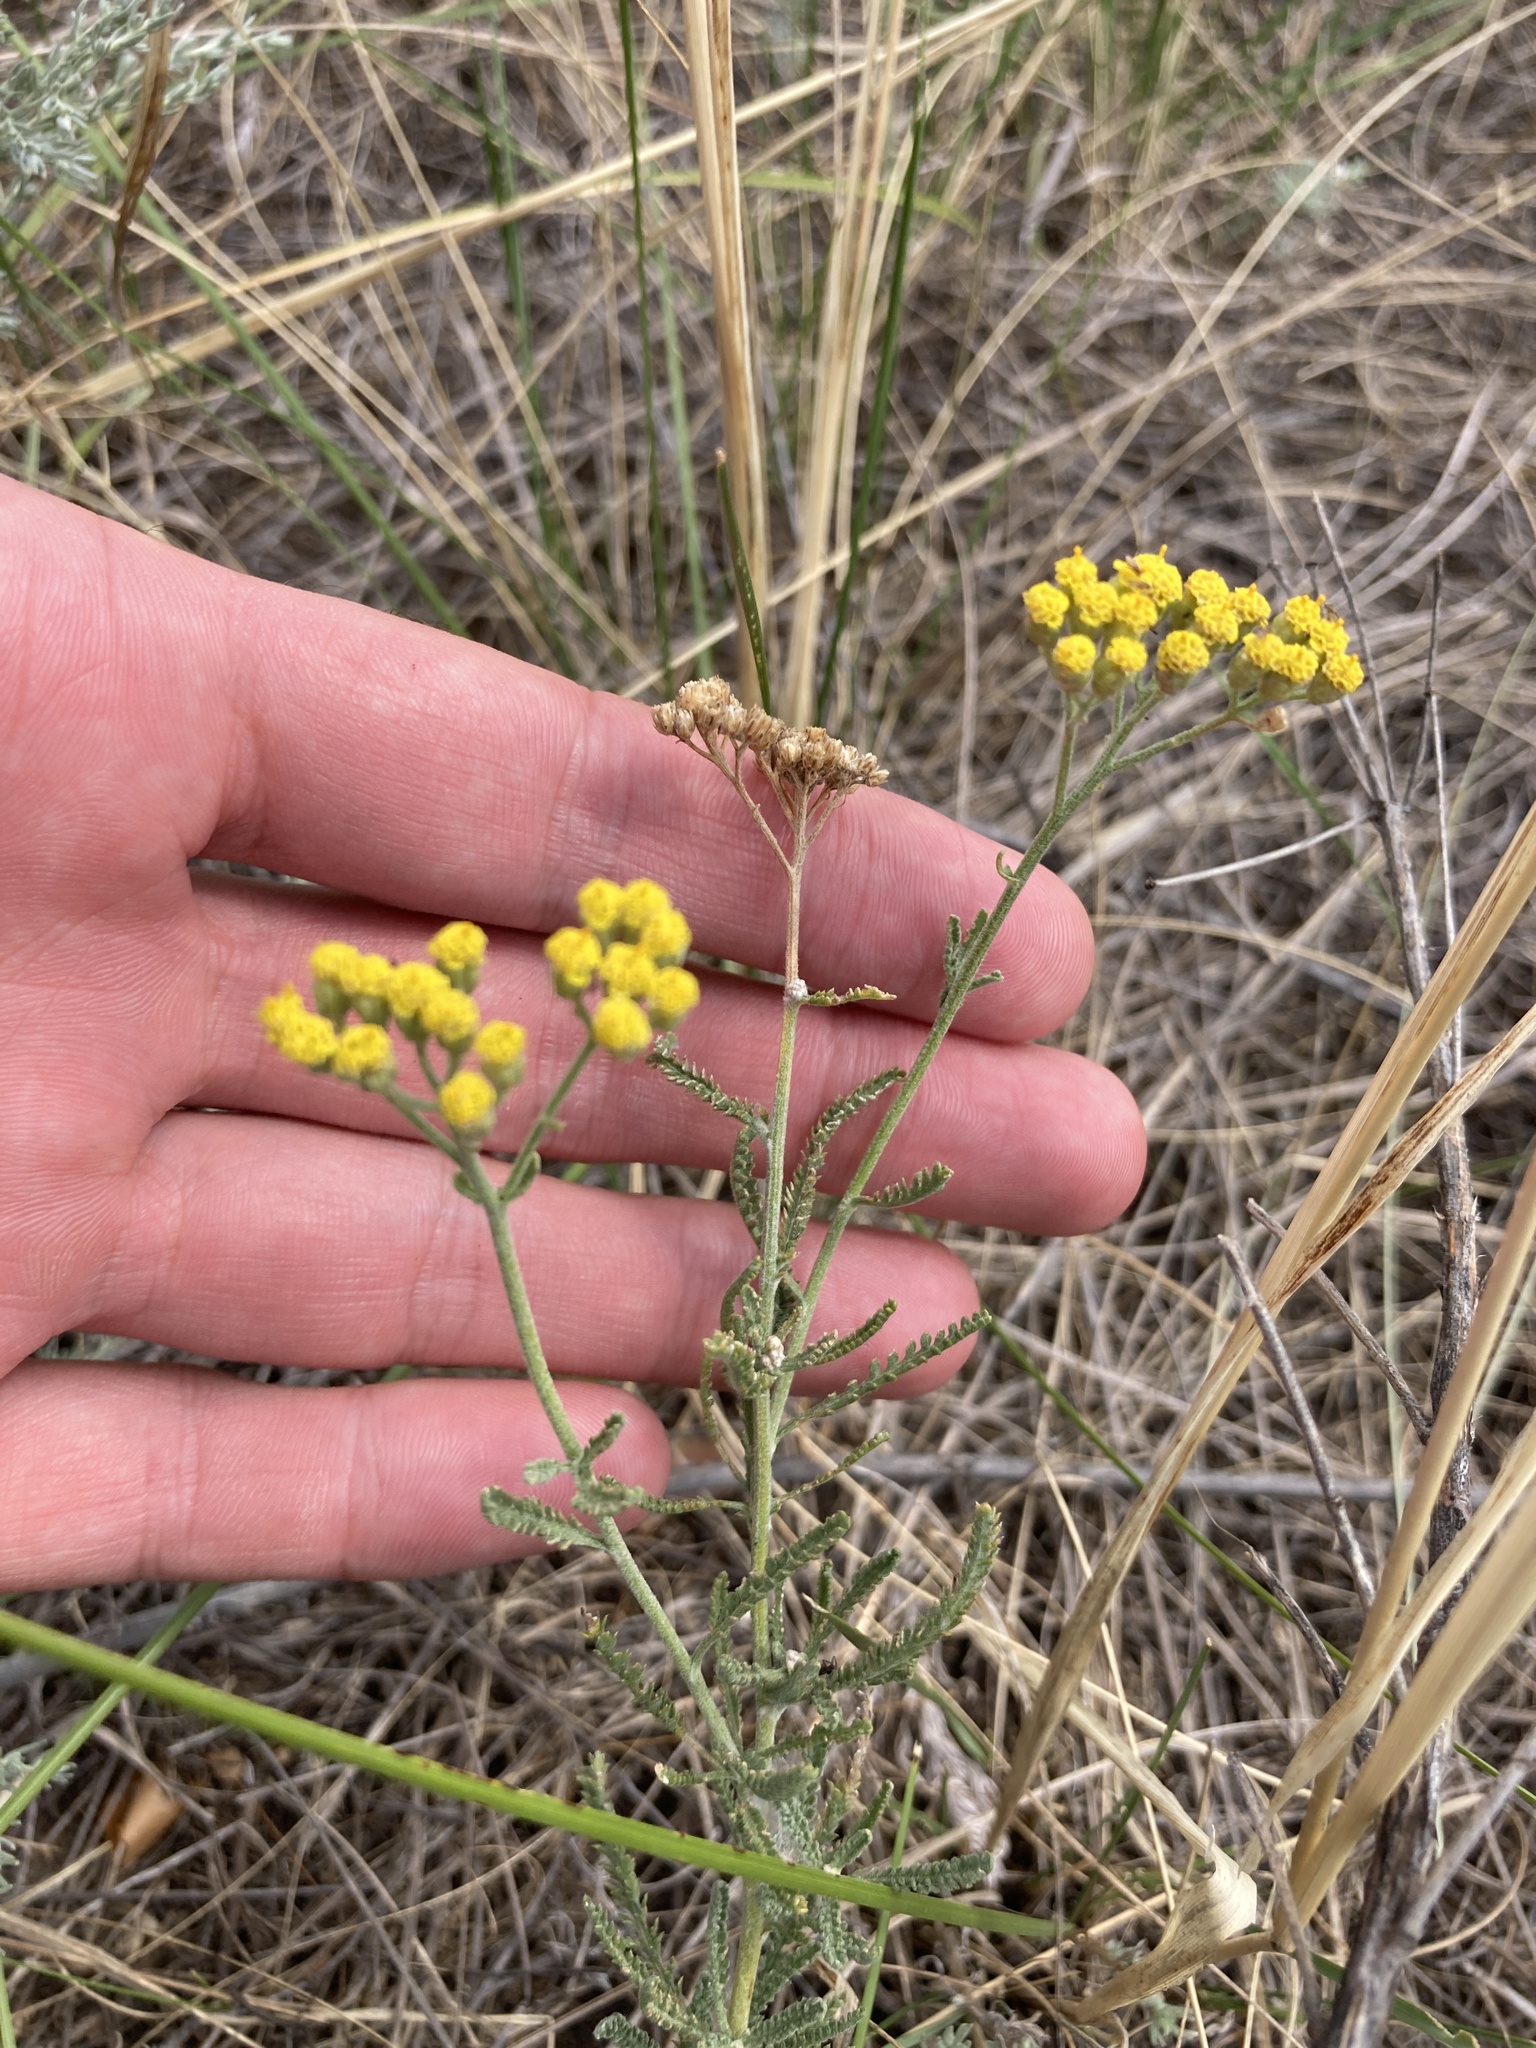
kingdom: Plantae
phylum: Tracheophyta
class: Magnoliopsida
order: Asterales
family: Asteraceae
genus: Achillea
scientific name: Achillea micrantha
